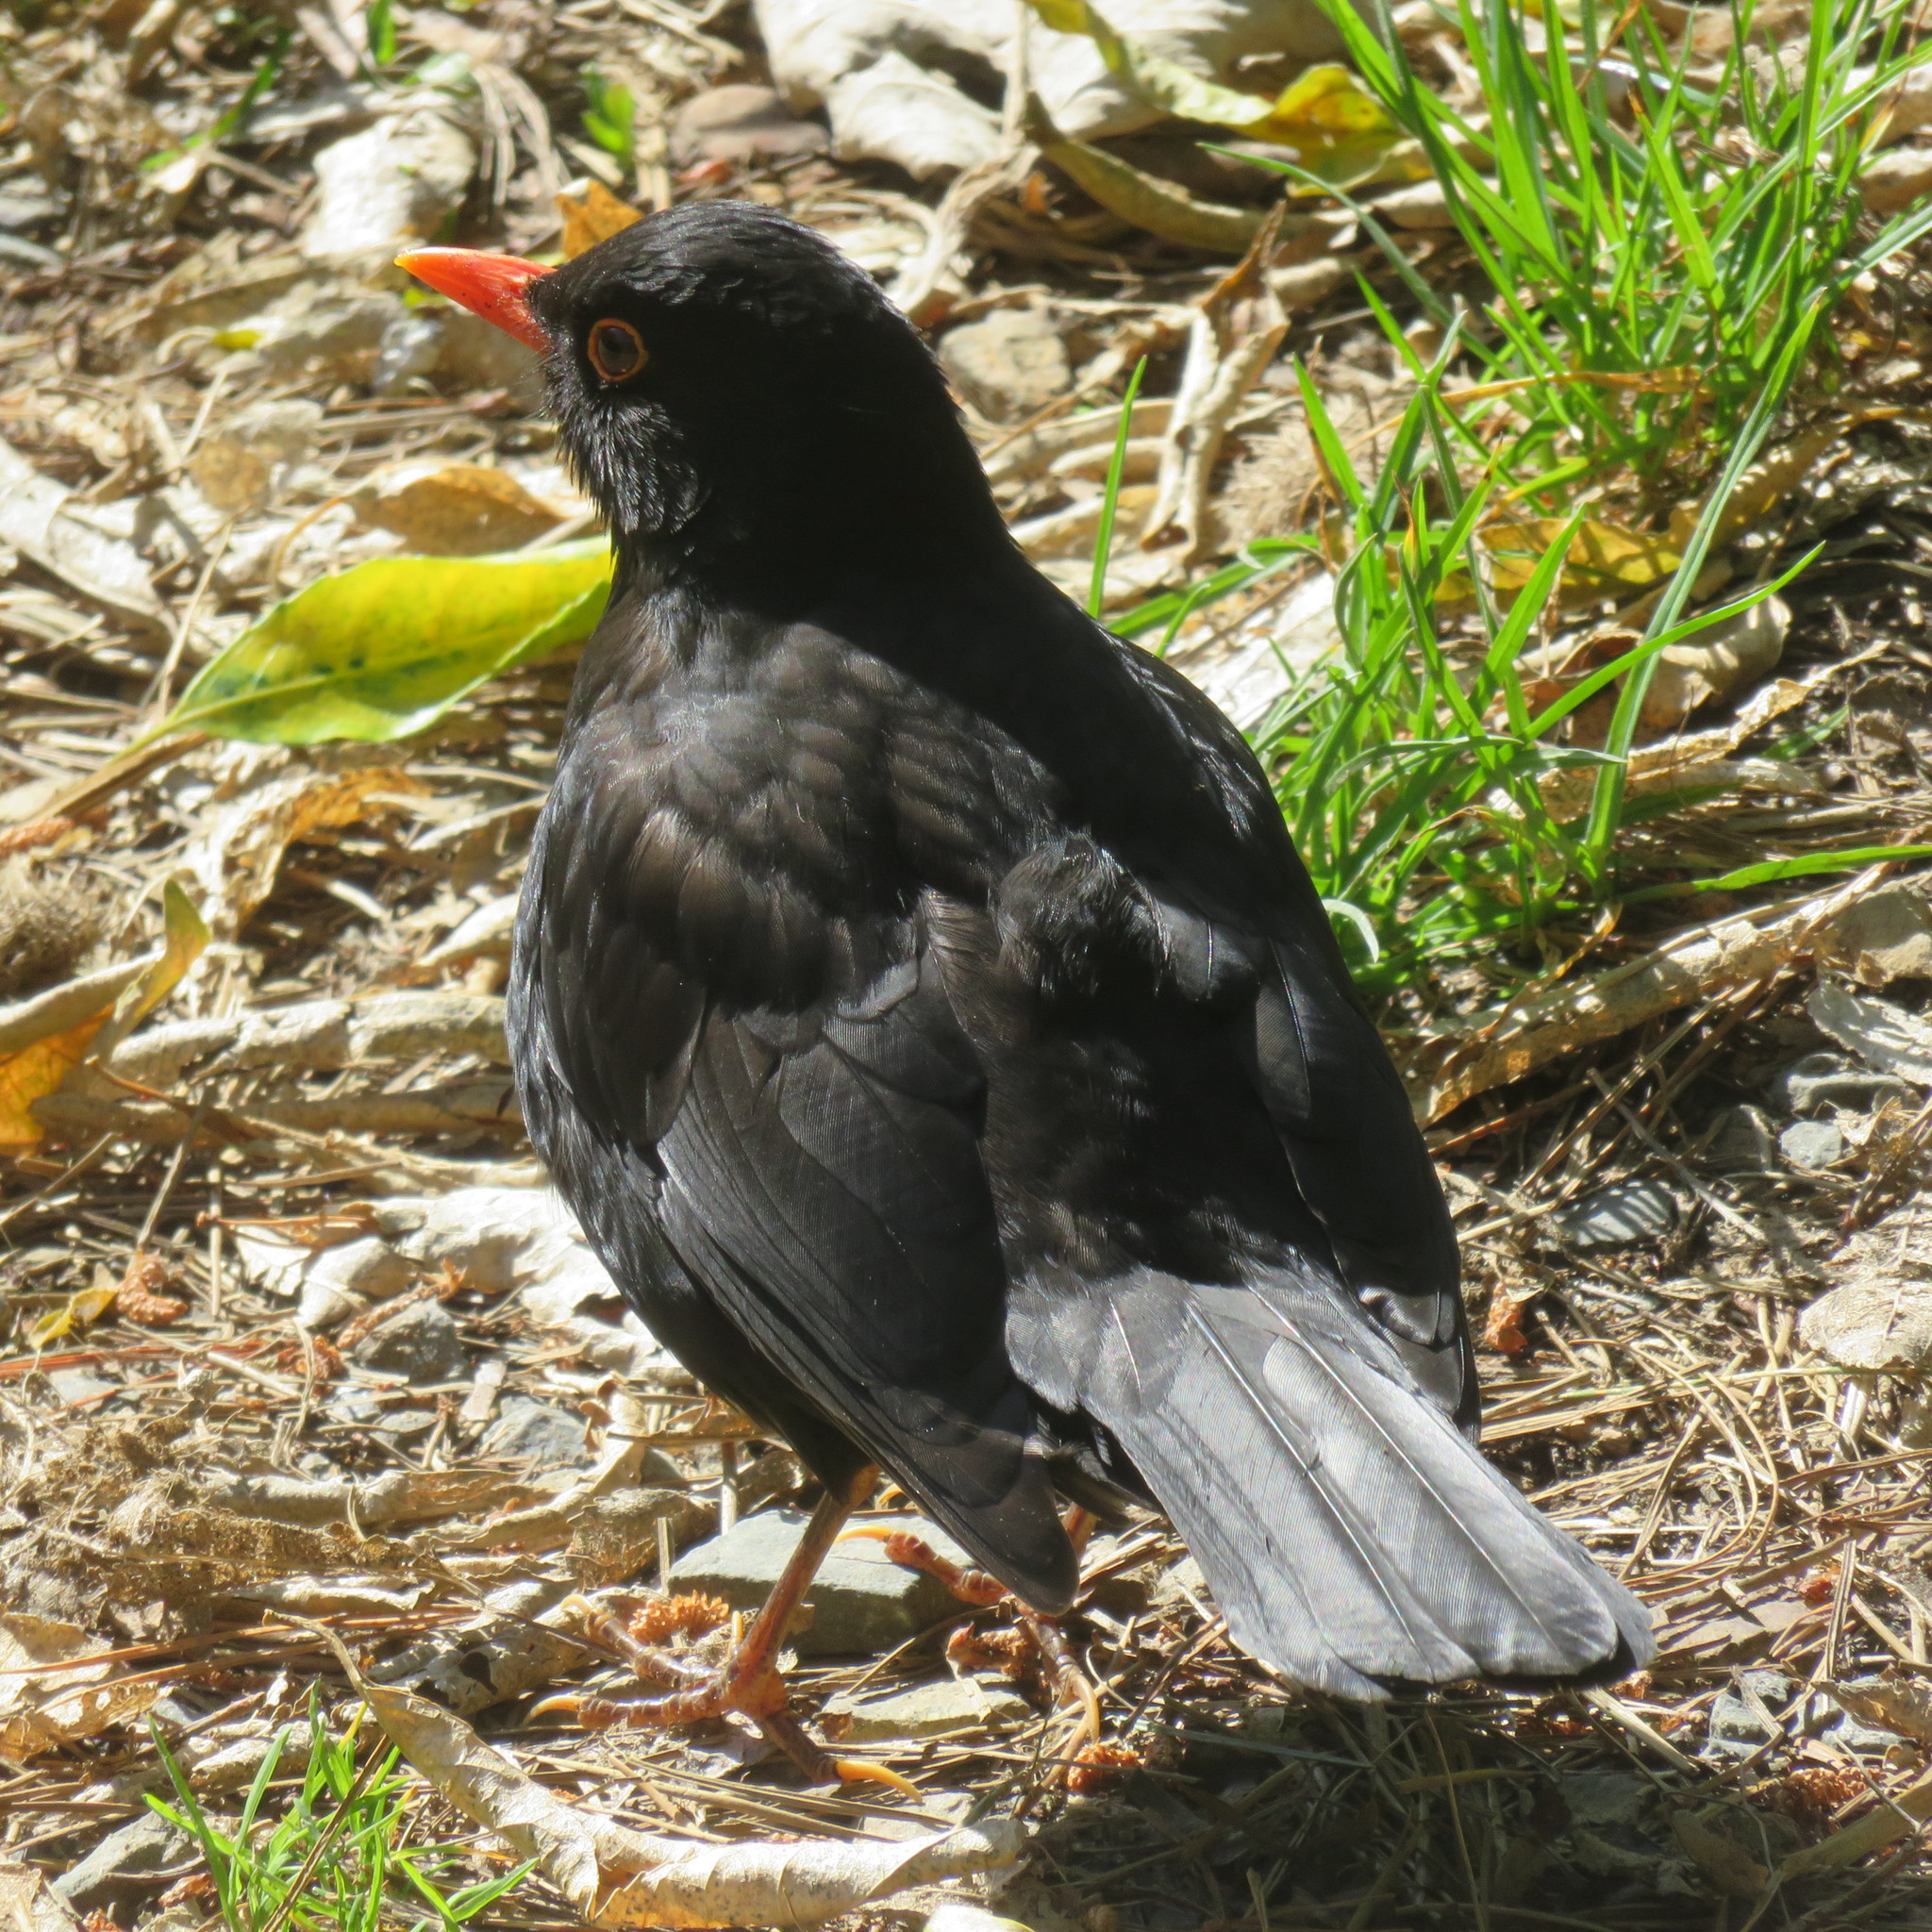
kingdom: Animalia
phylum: Chordata
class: Aves
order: Passeriformes
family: Turdidae
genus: Turdus
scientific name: Turdus merula
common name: Common blackbird
